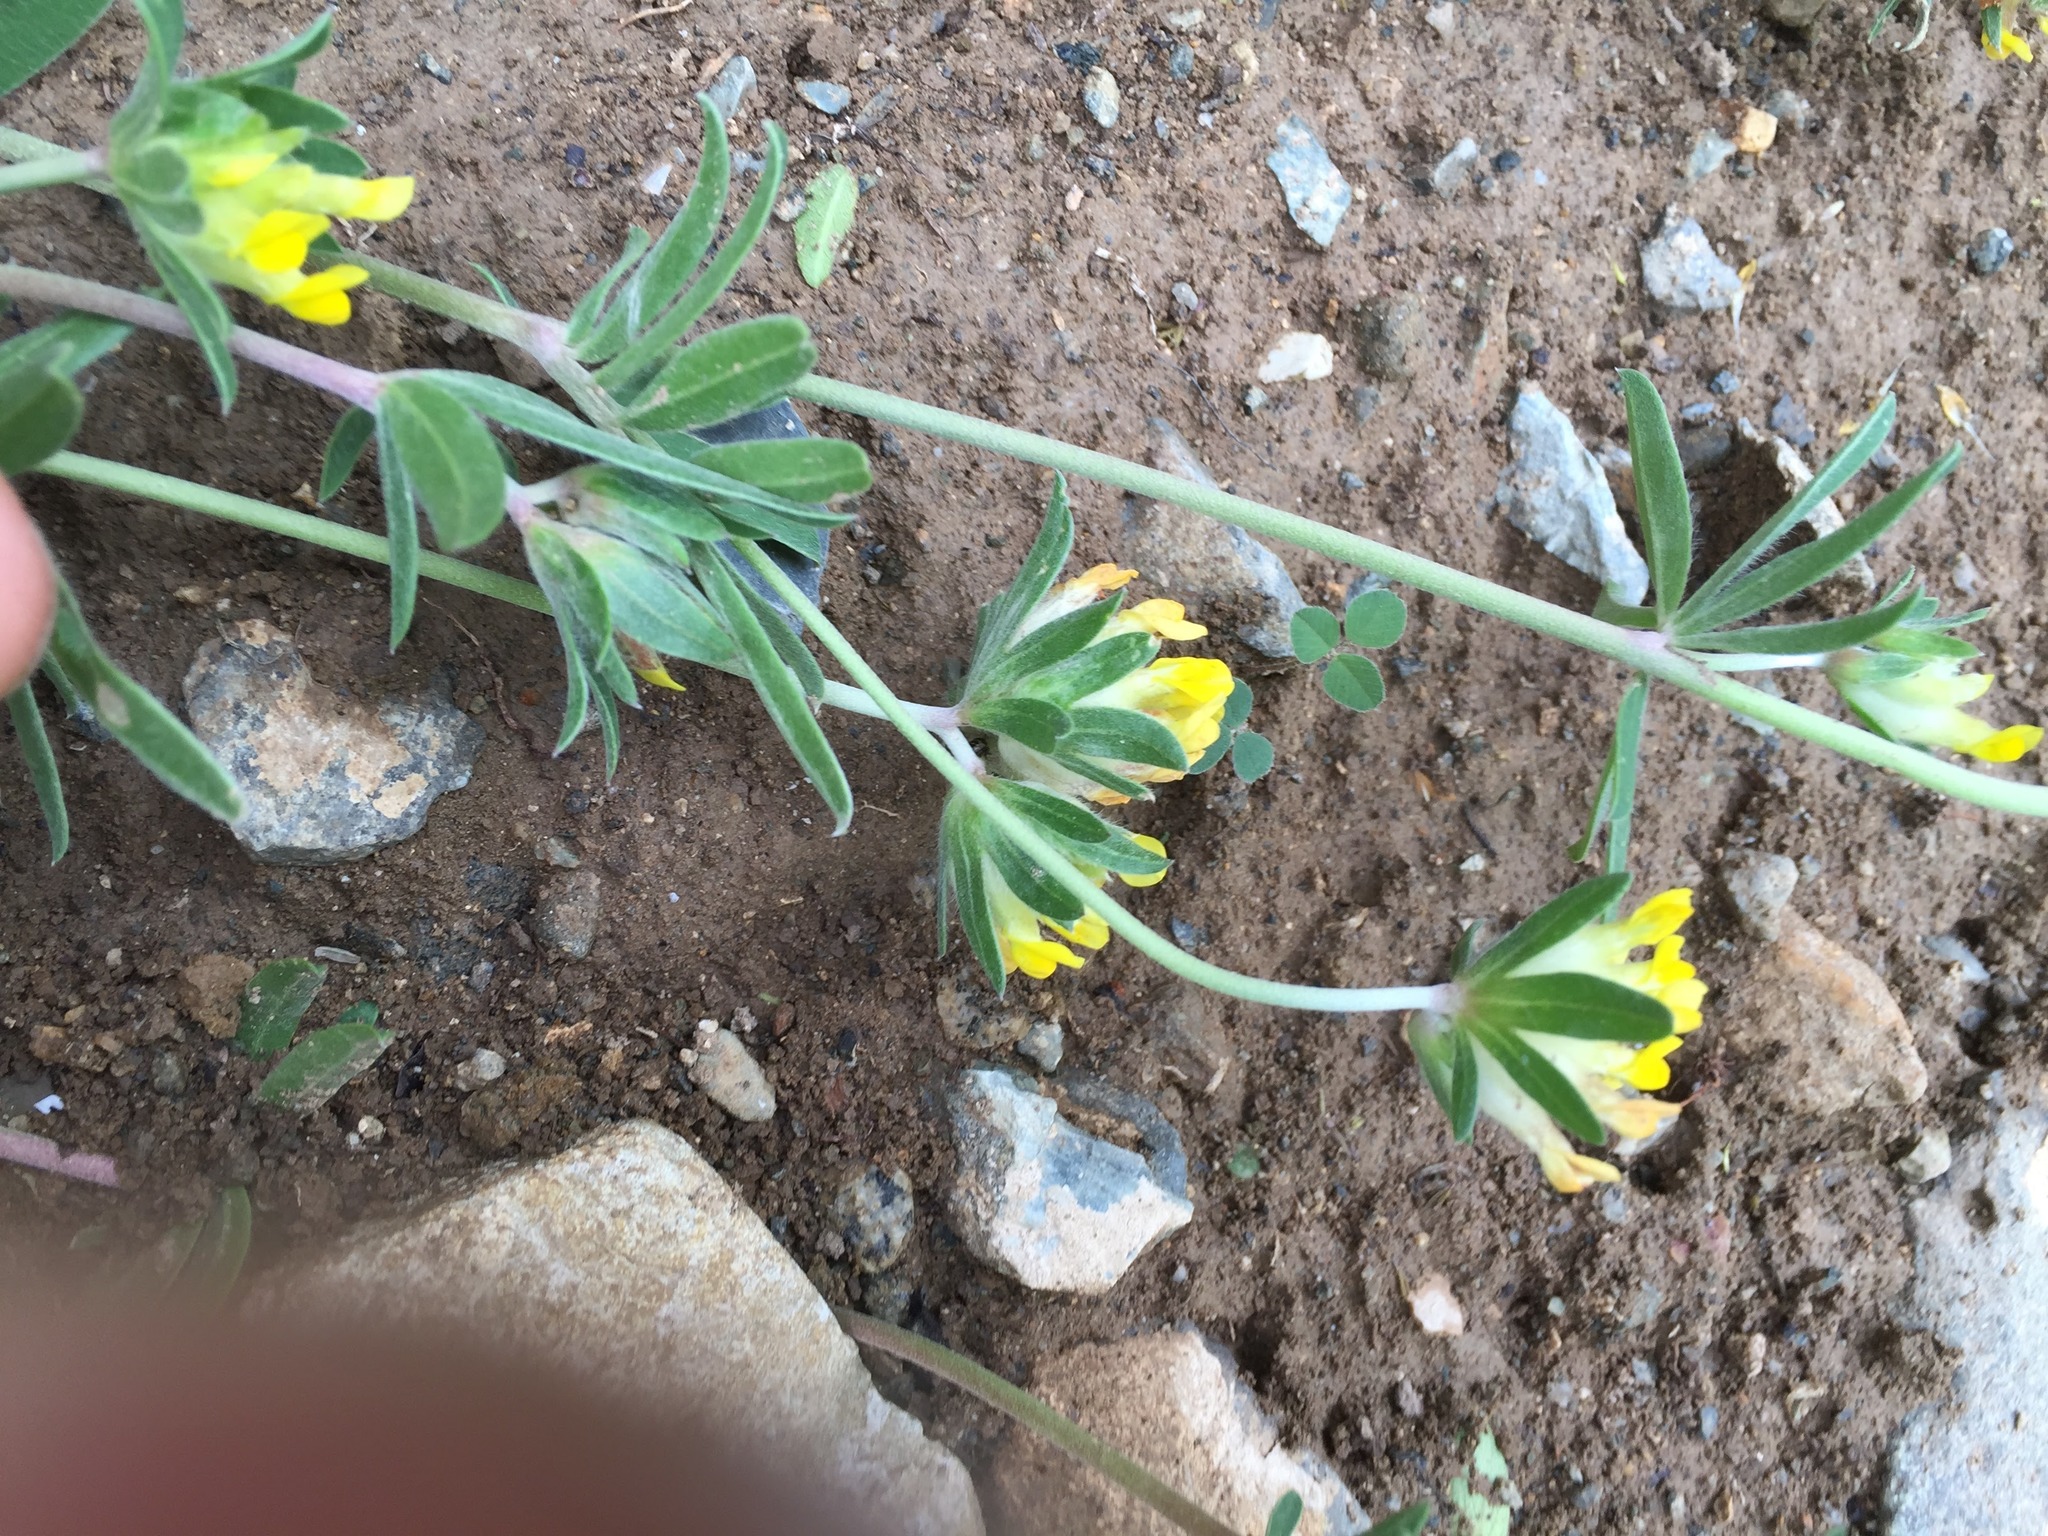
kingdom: Plantae
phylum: Tracheophyta
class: Magnoliopsida
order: Fabales
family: Fabaceae
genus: Anthyllis
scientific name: Anthyllis vulneraria
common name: Kidney vetch
